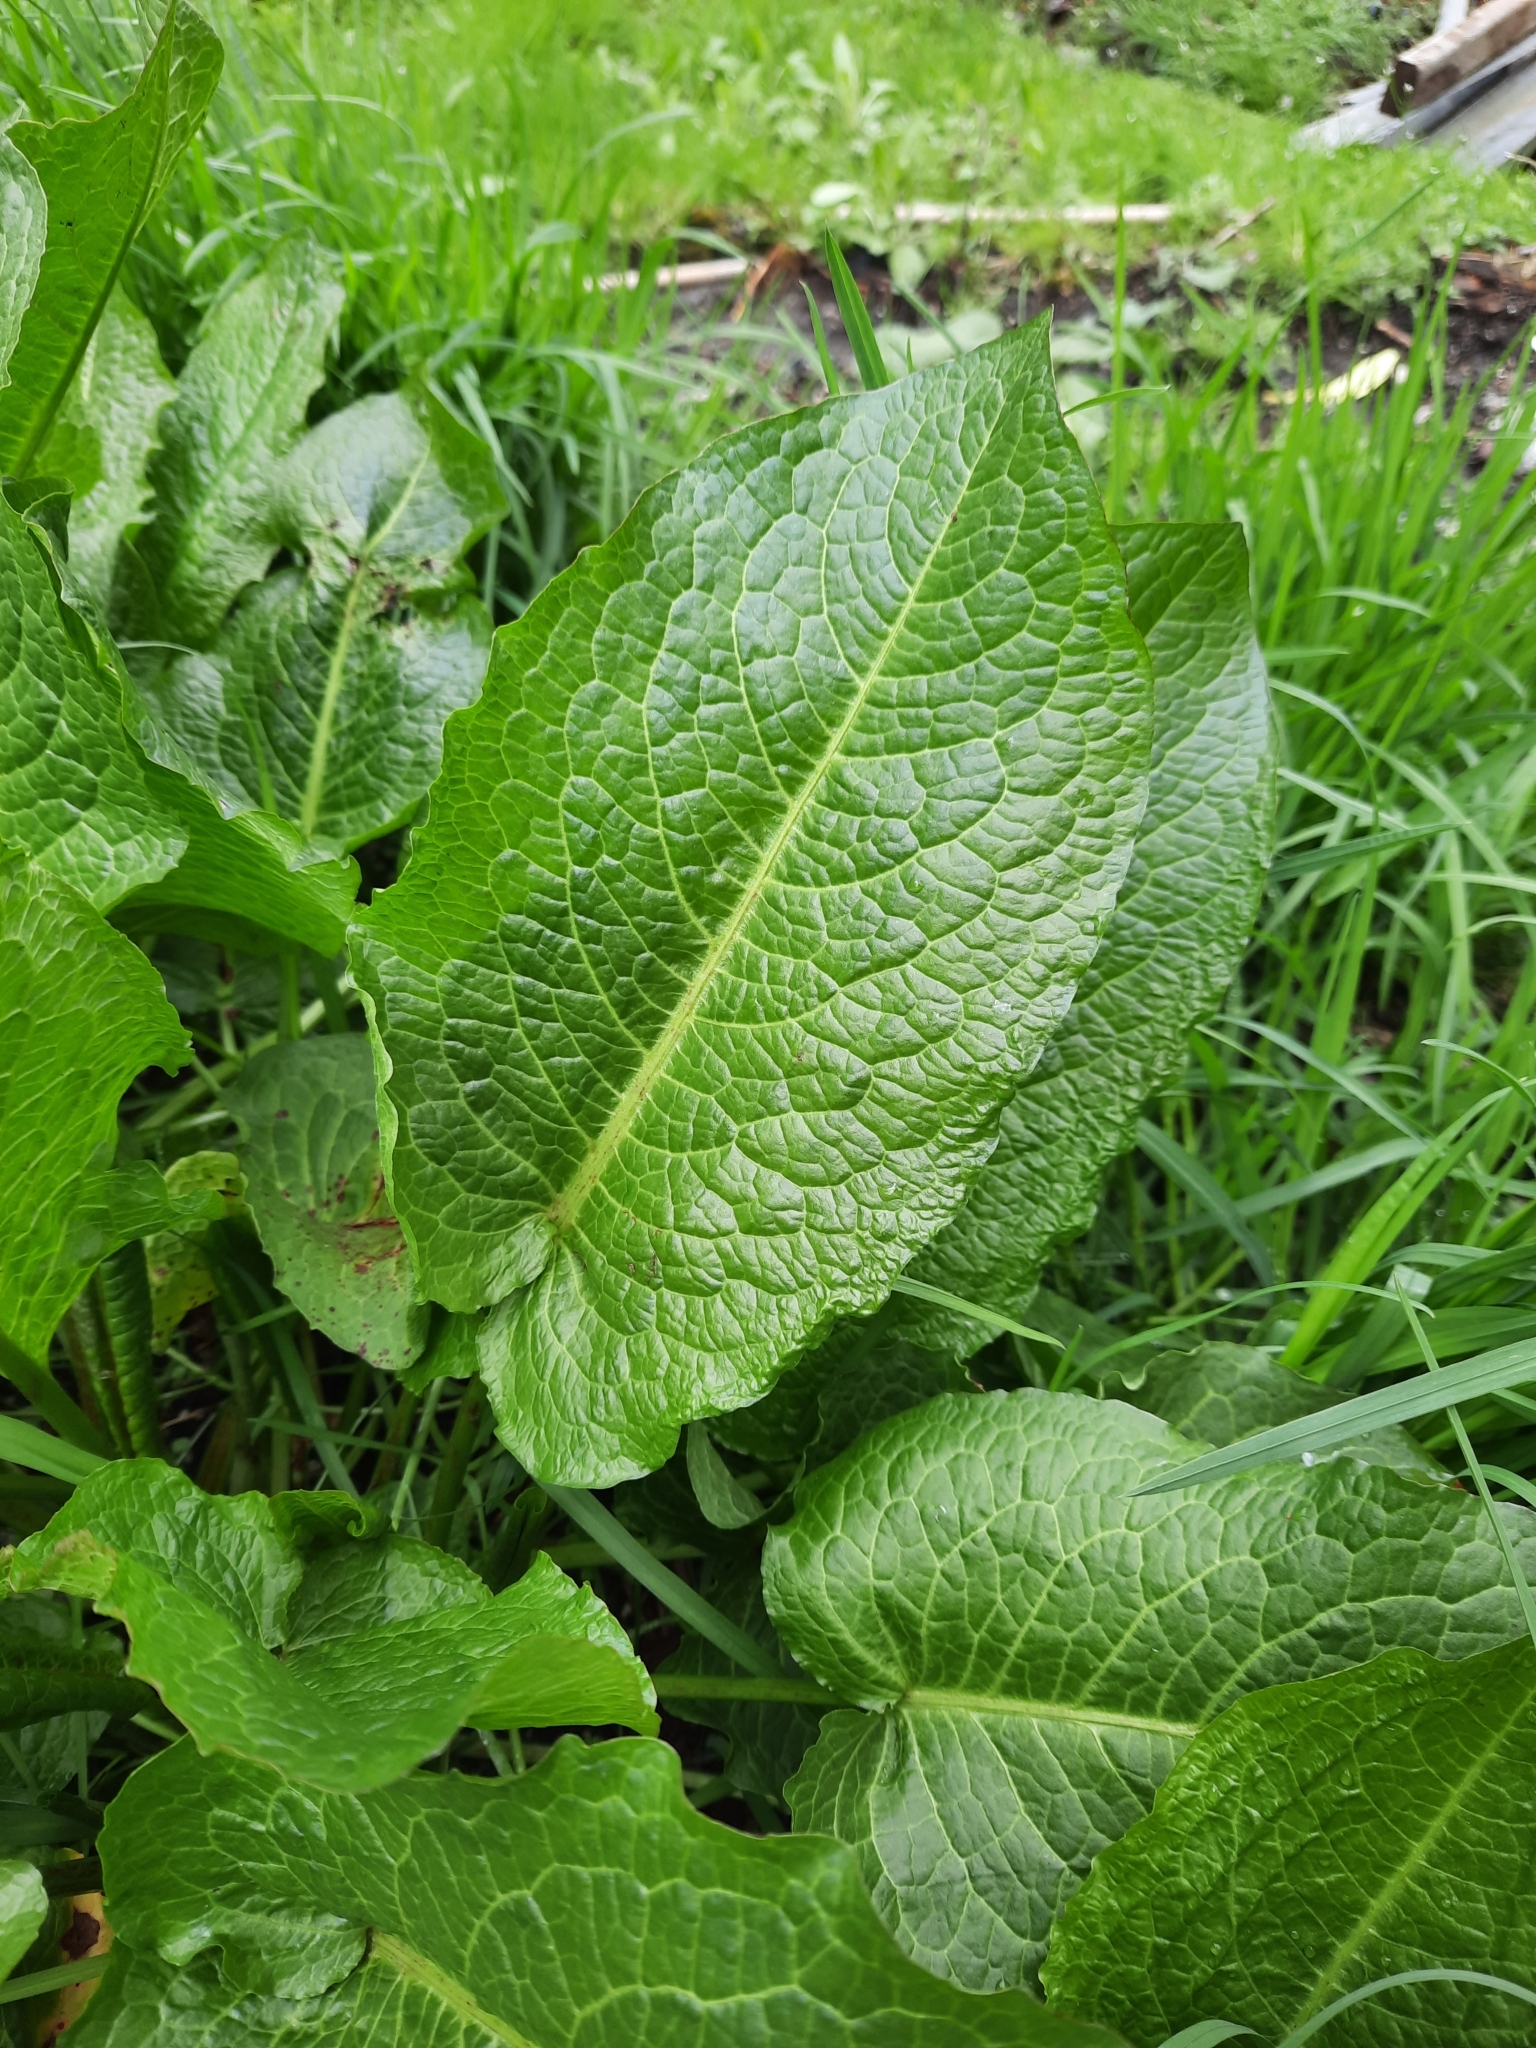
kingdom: Plantae
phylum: Tracheophyta
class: Magnoliopsida
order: Caryophyllales
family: Polygonaceae
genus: Rumex
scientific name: Rumex obtusifolius
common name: Bitter dock
